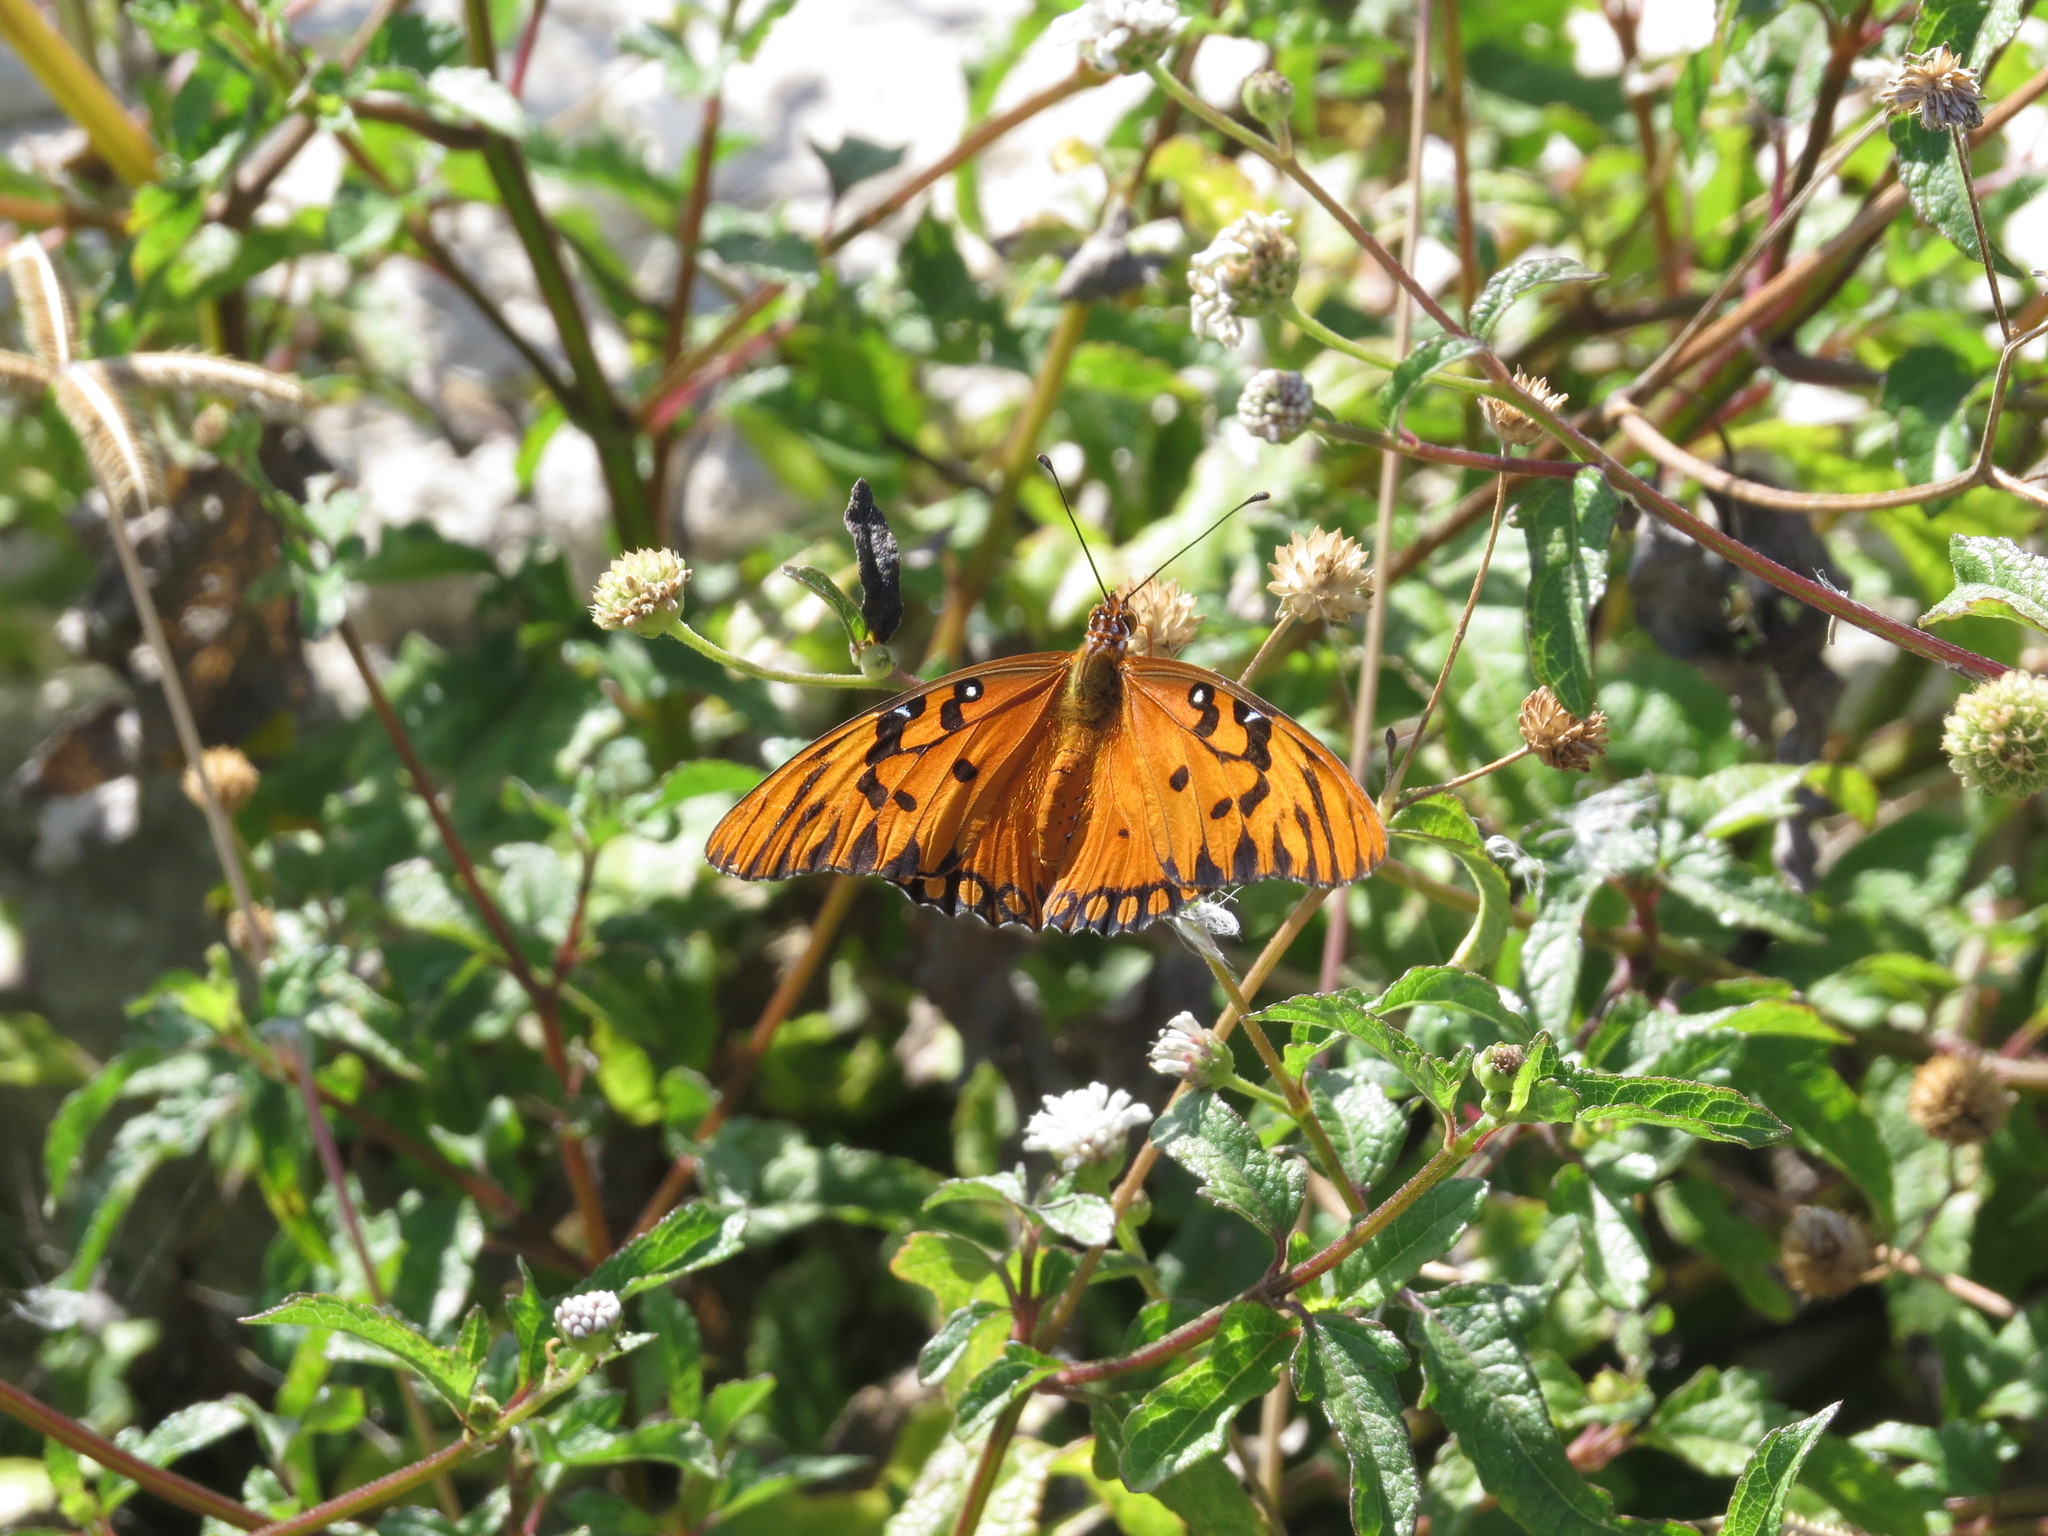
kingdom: Animalia
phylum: Arthropoda
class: Insecta
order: Lepidoptera
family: Nymphalidae
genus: Dione
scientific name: Dione vanillae
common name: Gulf fritillary
